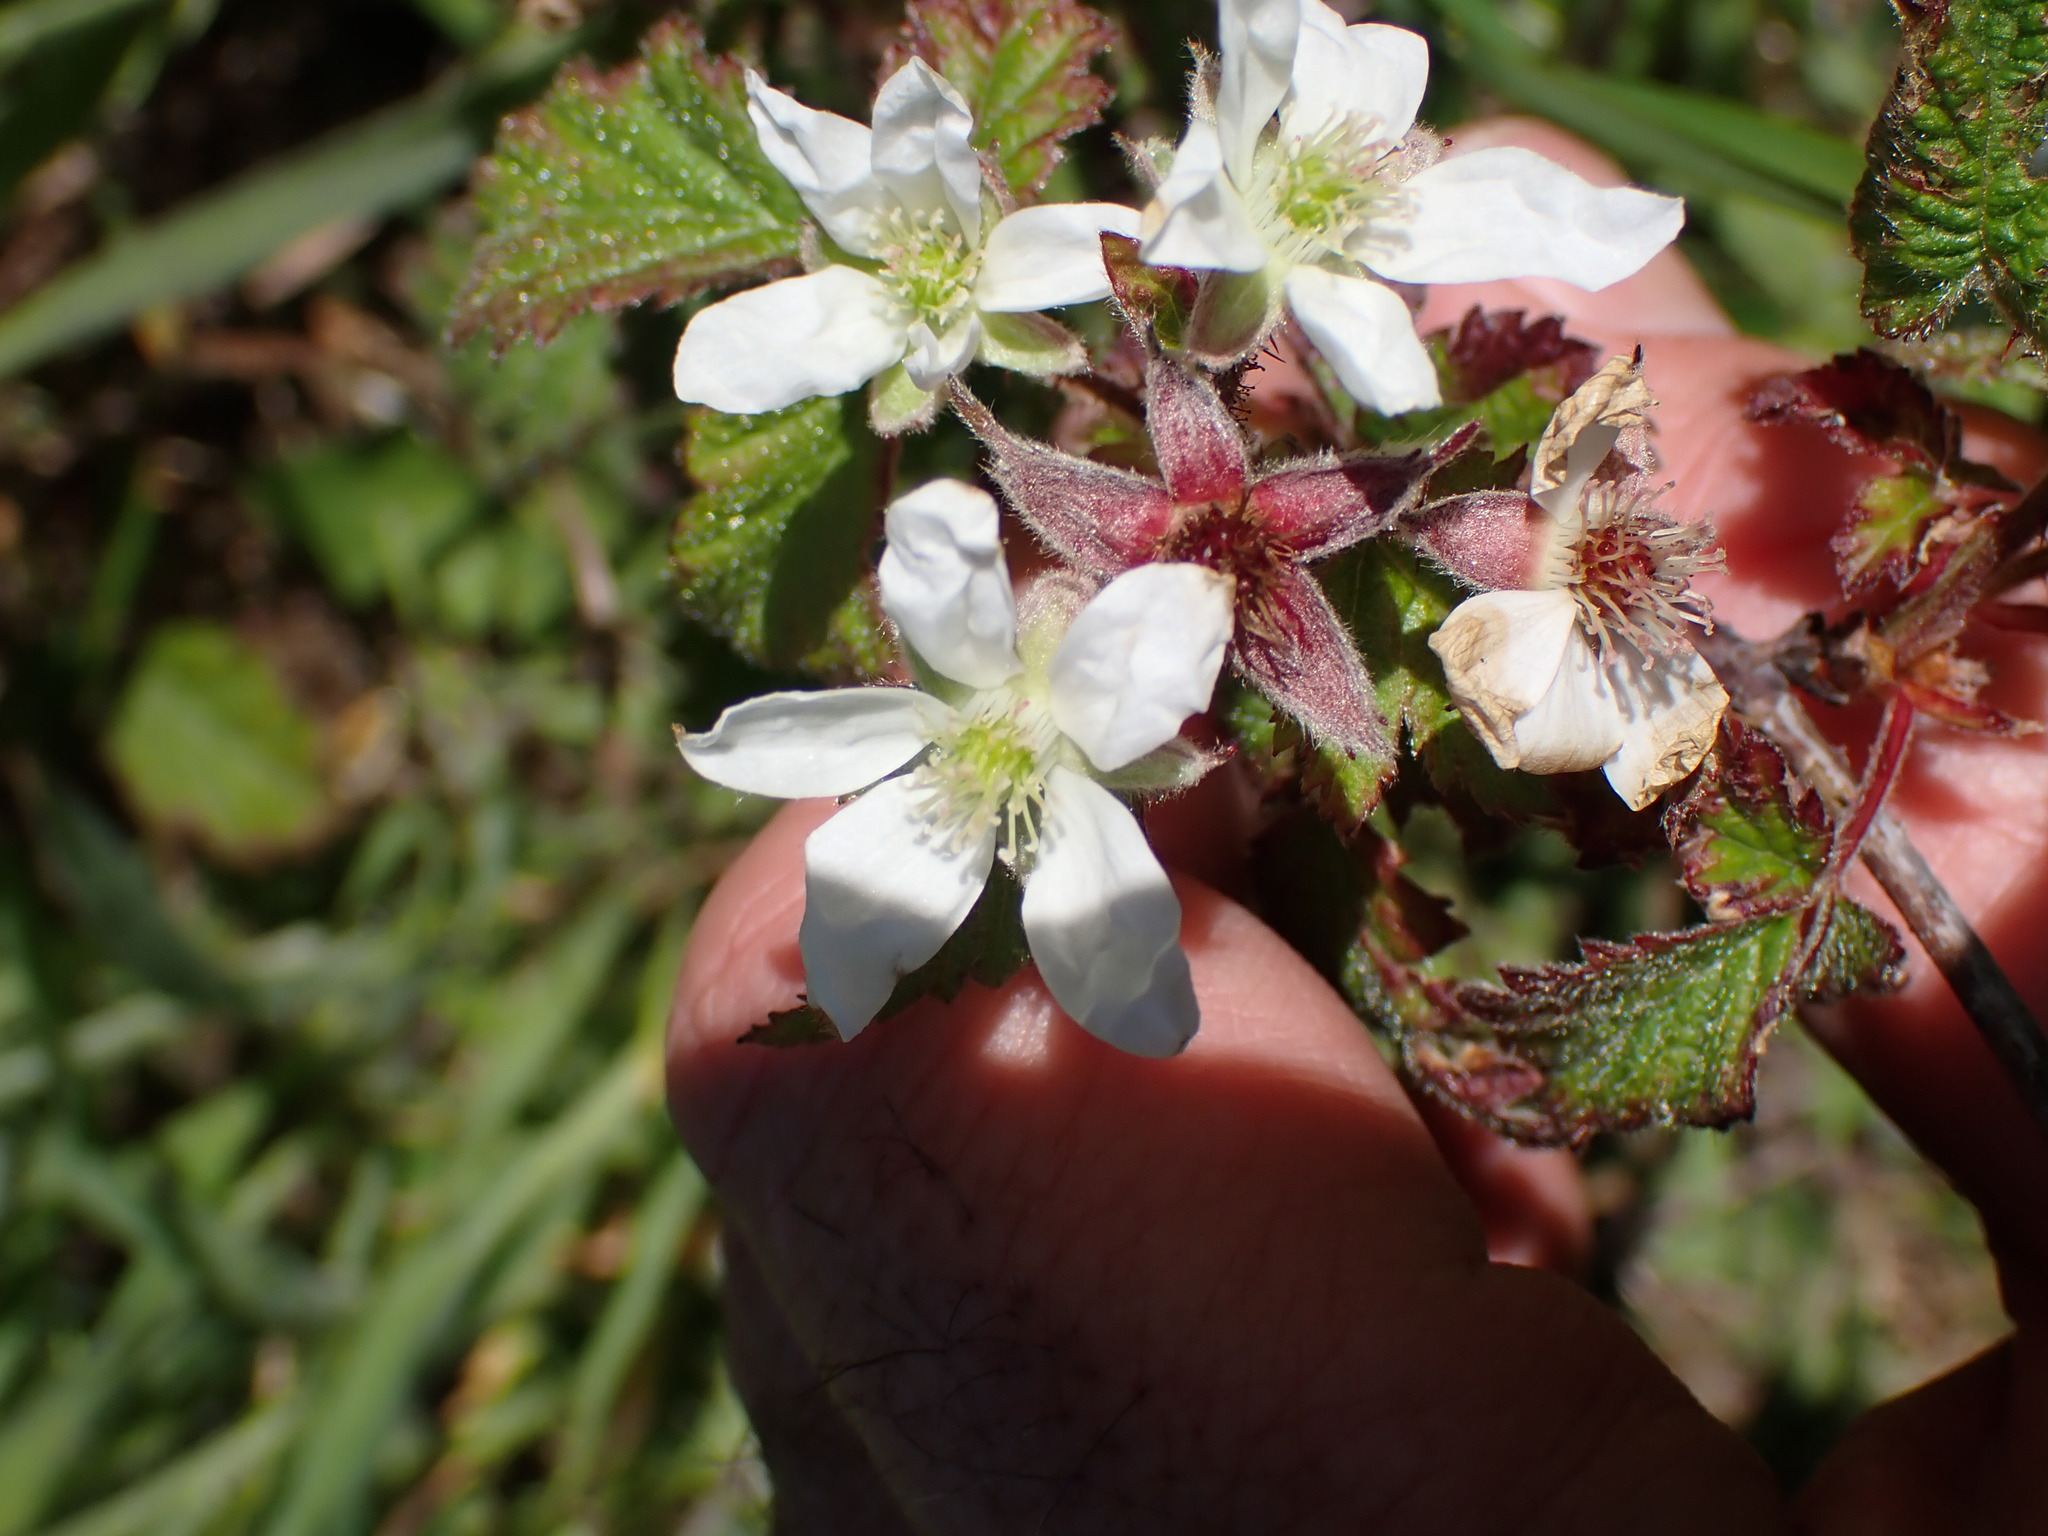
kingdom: Plantae
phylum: Tracheophyta
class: Magnoliopsida
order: Rosales
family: Rosaceae
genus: Rubus
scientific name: Rubus ursinus
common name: Pacific blackberry
